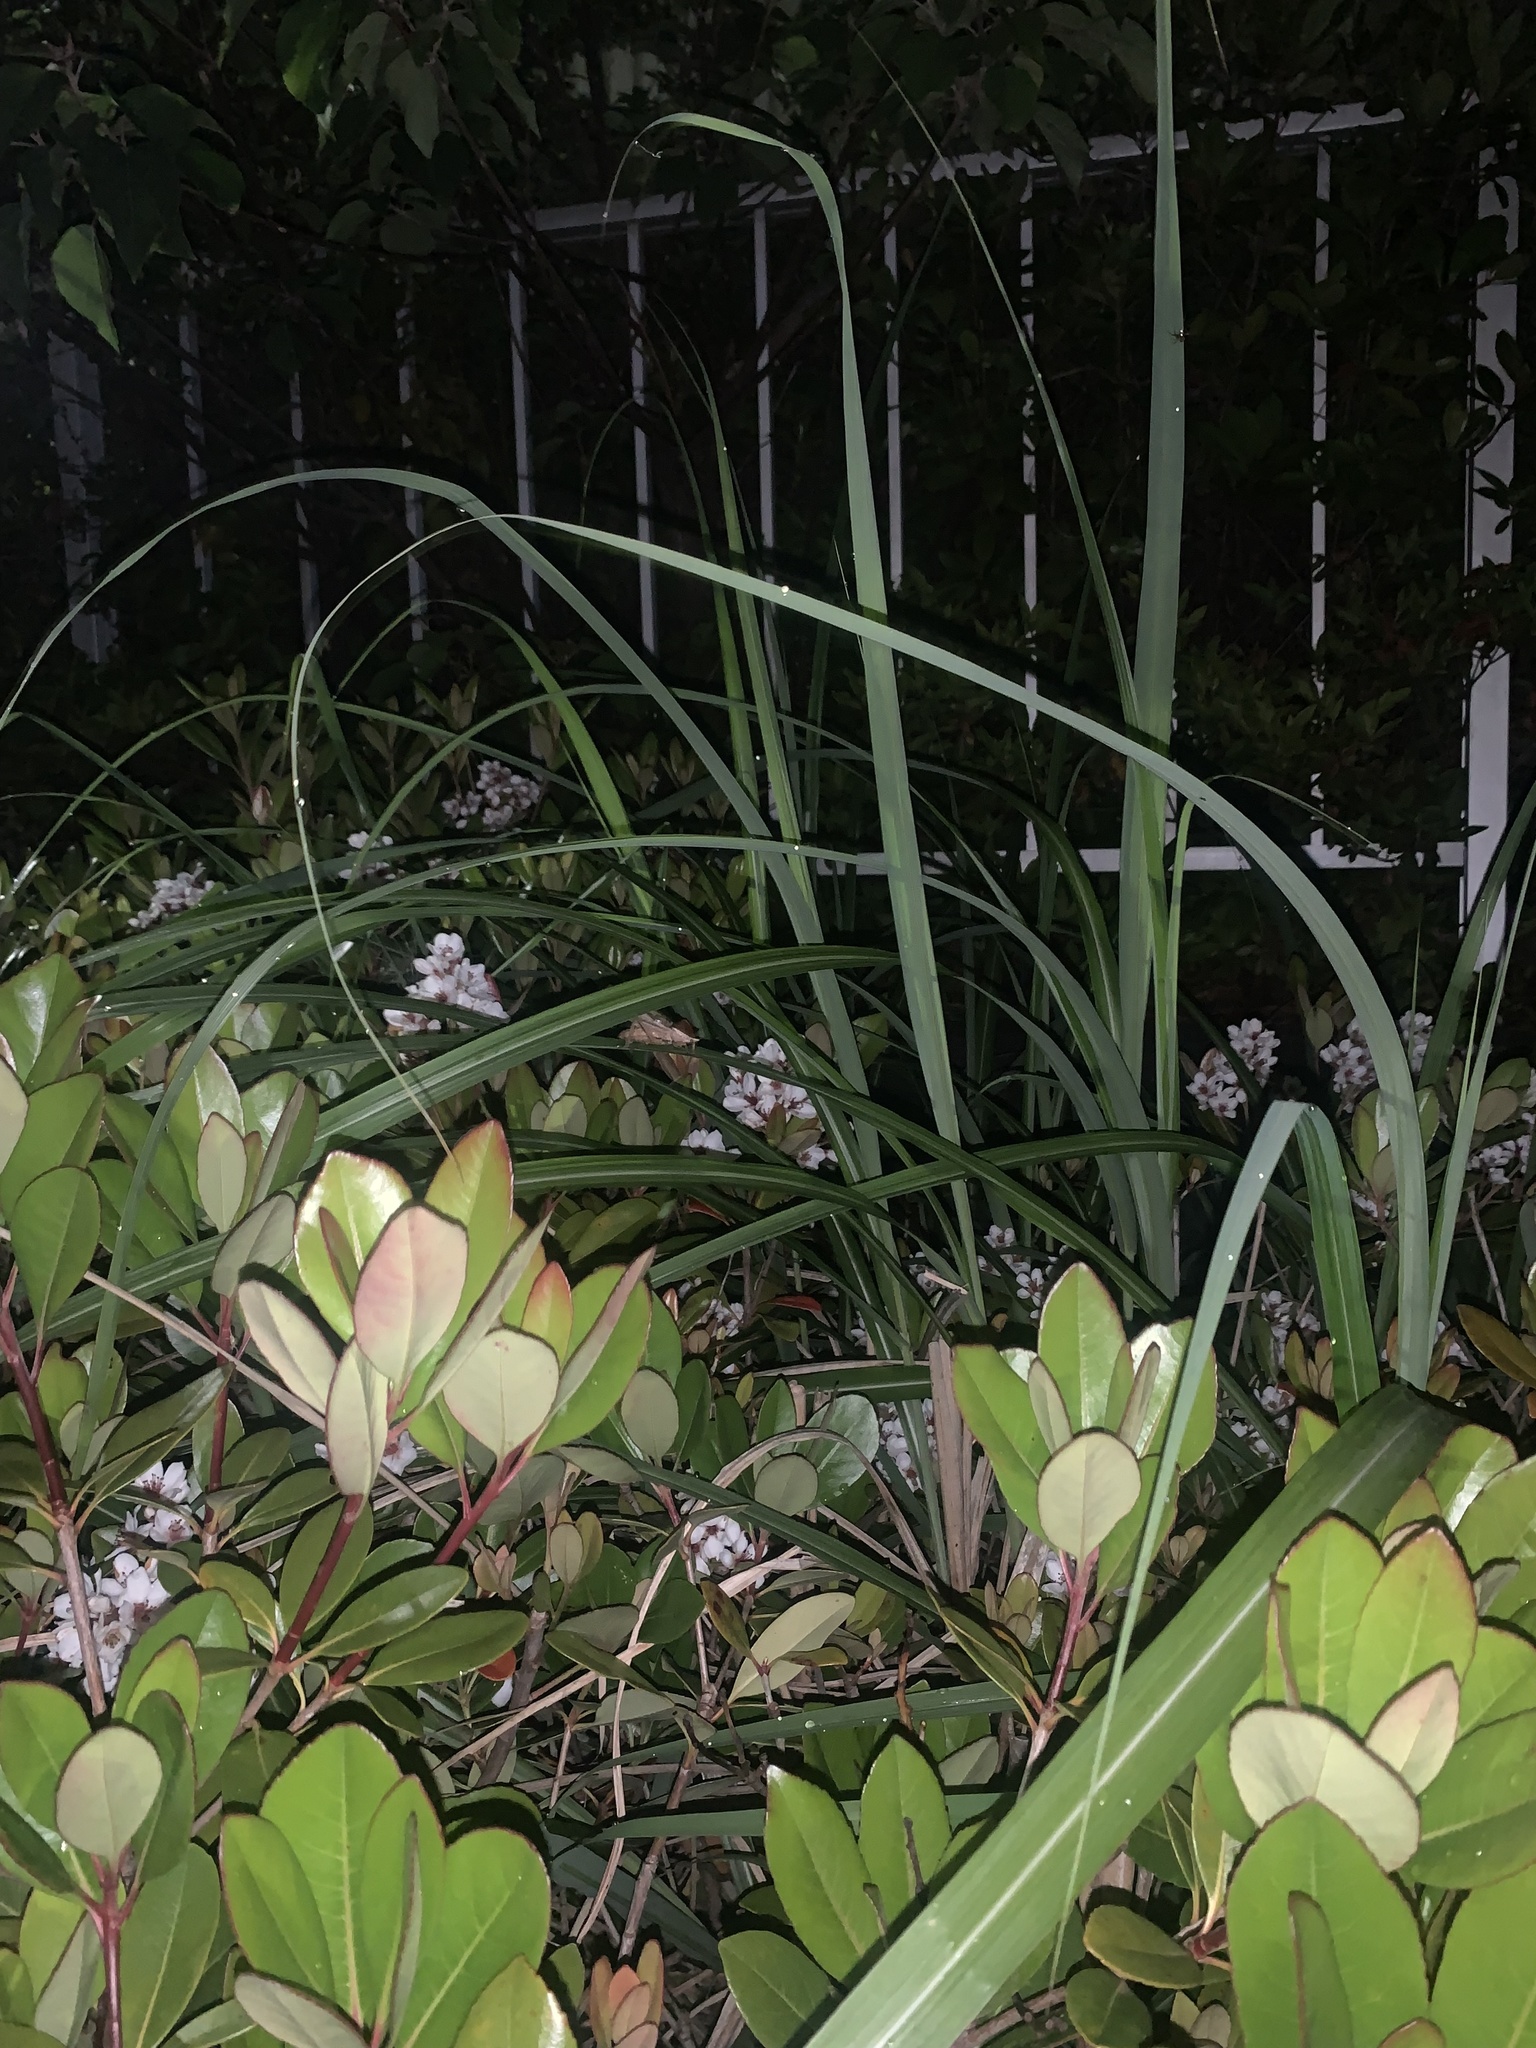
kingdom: Animalia
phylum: Arthropoda
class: Insecta
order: Orthoptera
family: Tettigoniidae
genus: Xestophrys
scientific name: Xestophrys javanicus
